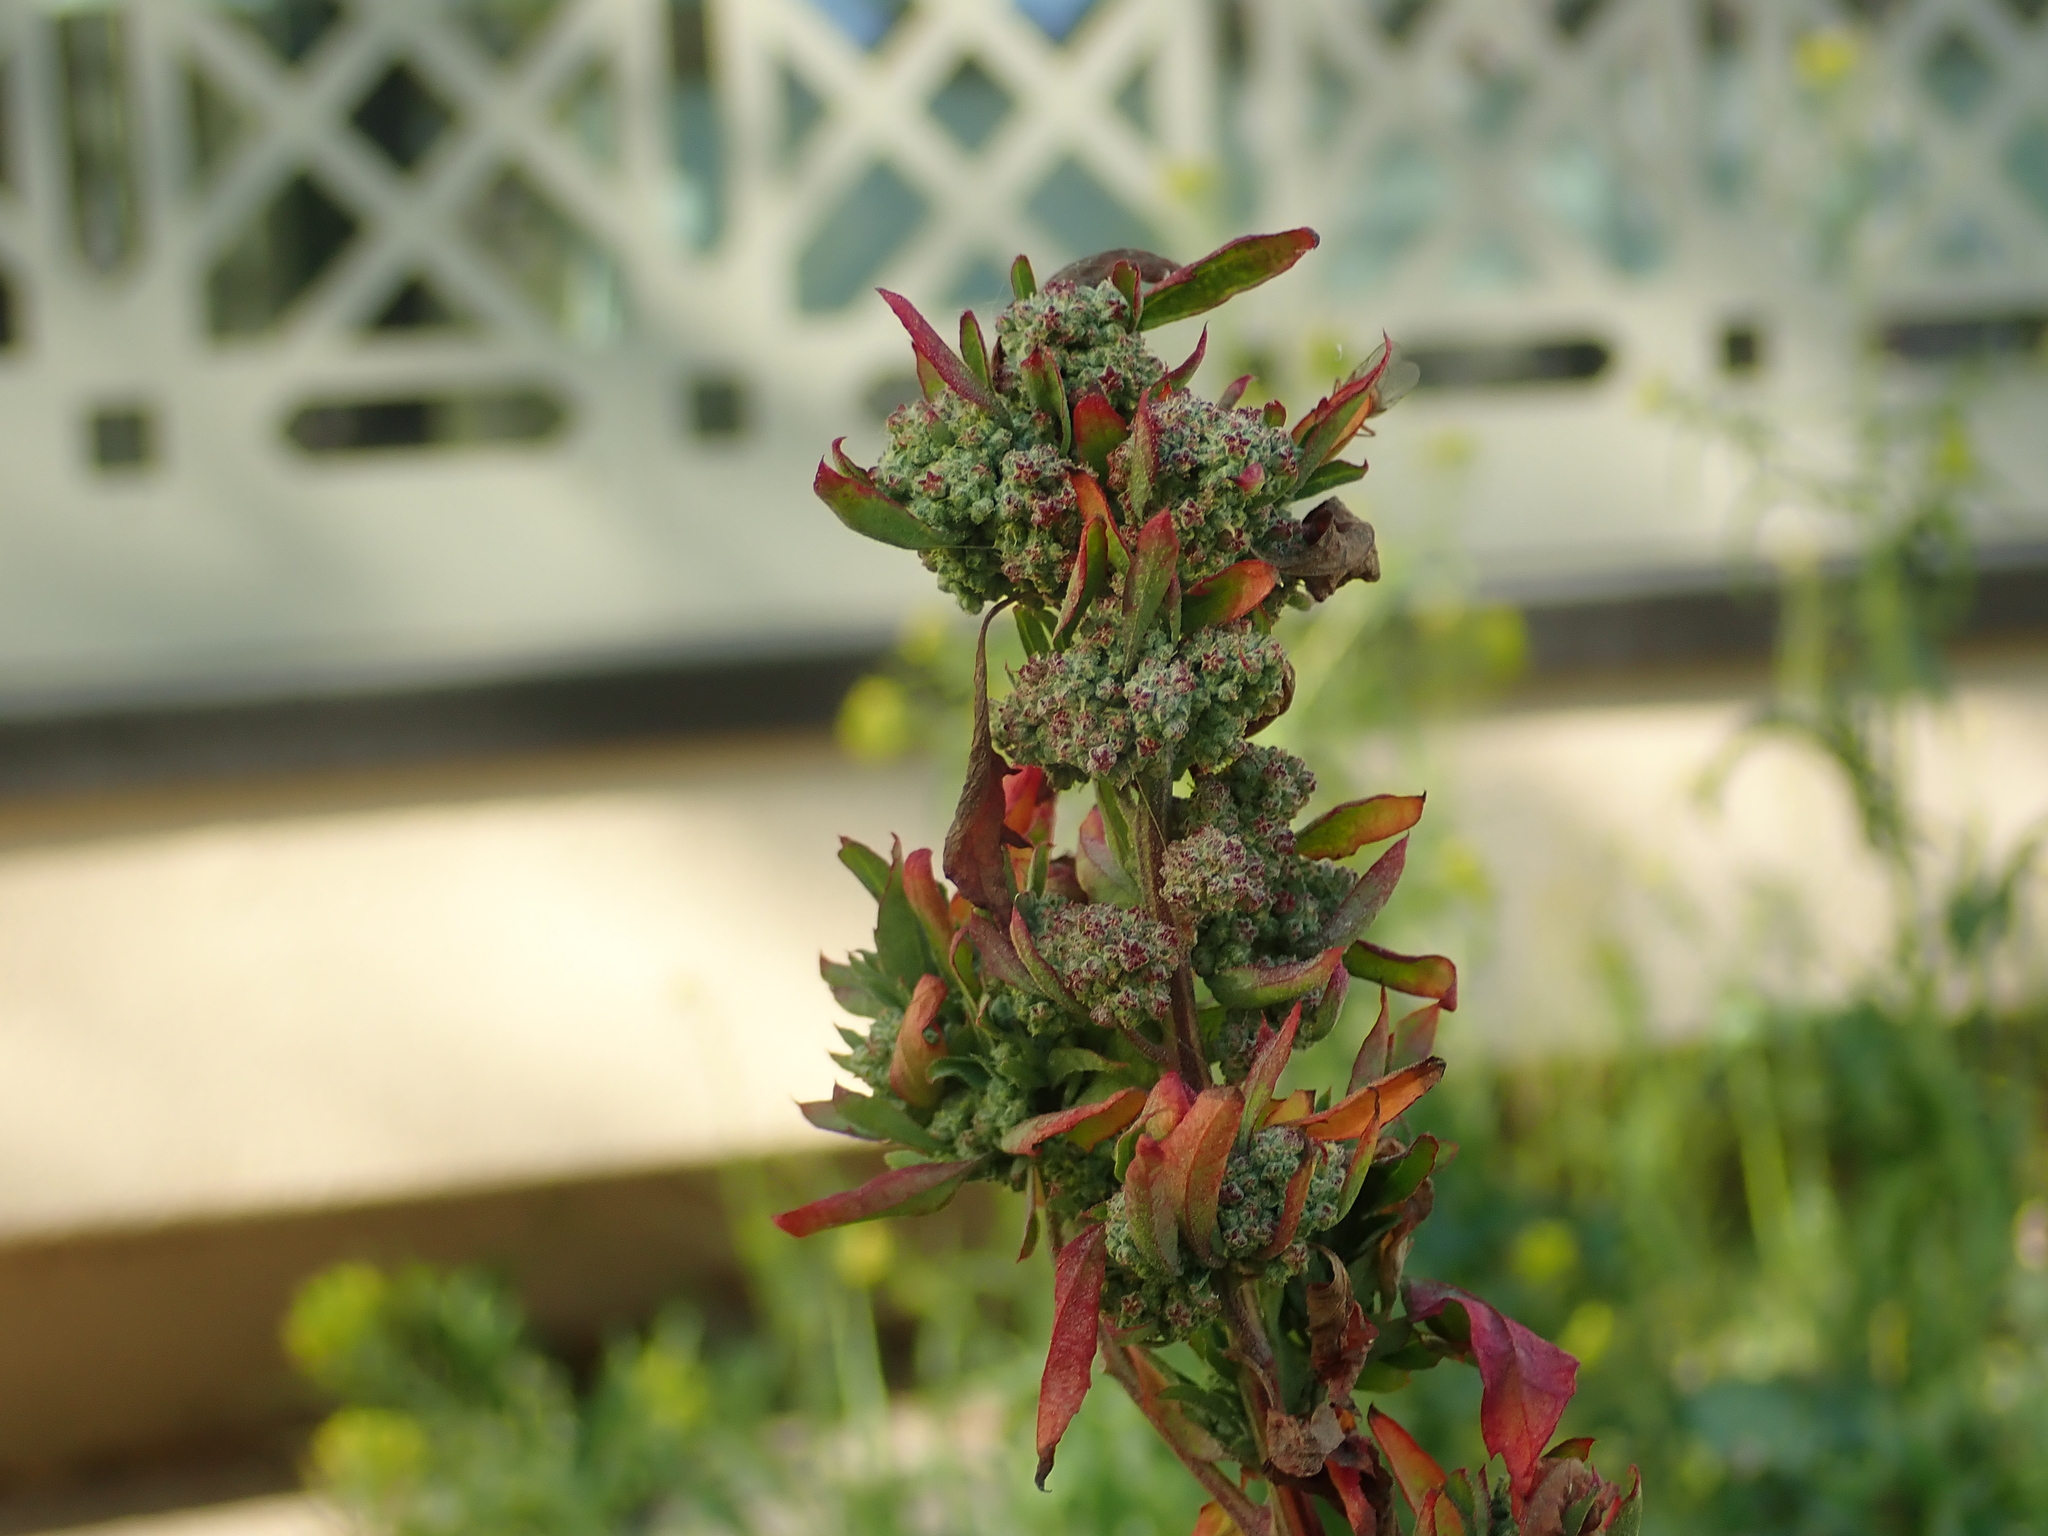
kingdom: Plantae
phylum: Tracheophyta
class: Magnoliopsida
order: Caryophyllales
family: Amaranthaceae
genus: Chenopodium
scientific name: Chenopodium album
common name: Fat-hen
